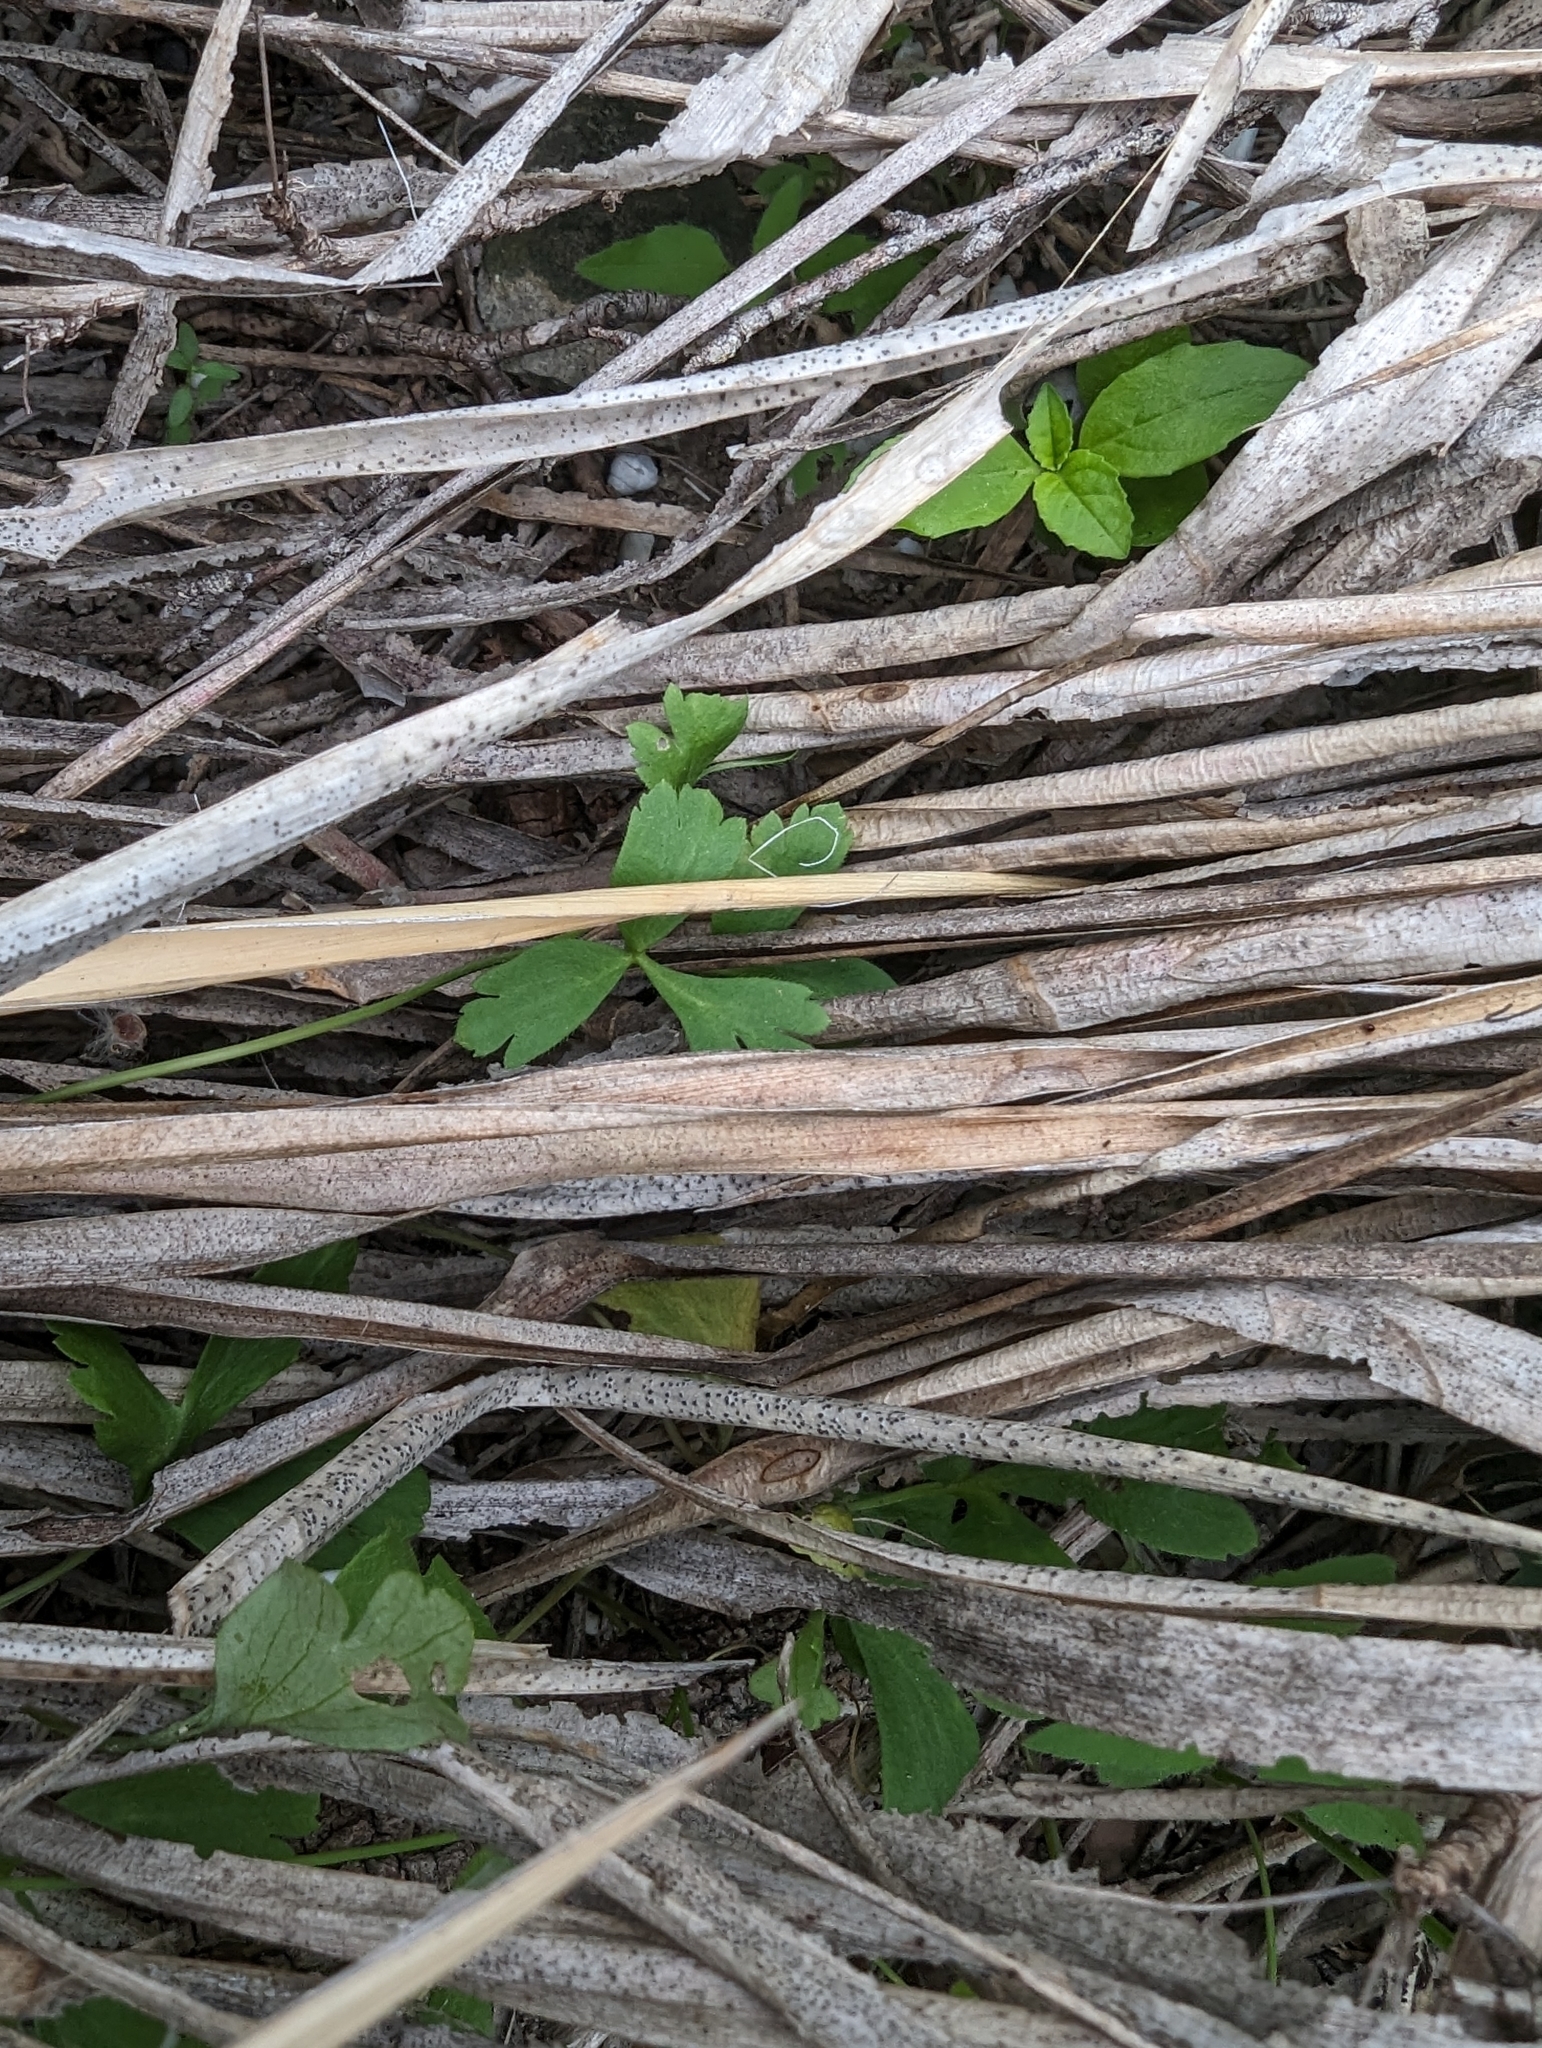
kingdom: Plantae
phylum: Tracheophyta
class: Magnoliopsida
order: Ranunculales
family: Ranunculaceae
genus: Anemone
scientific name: Anemone berlandieri
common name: Ten-petal anemone
